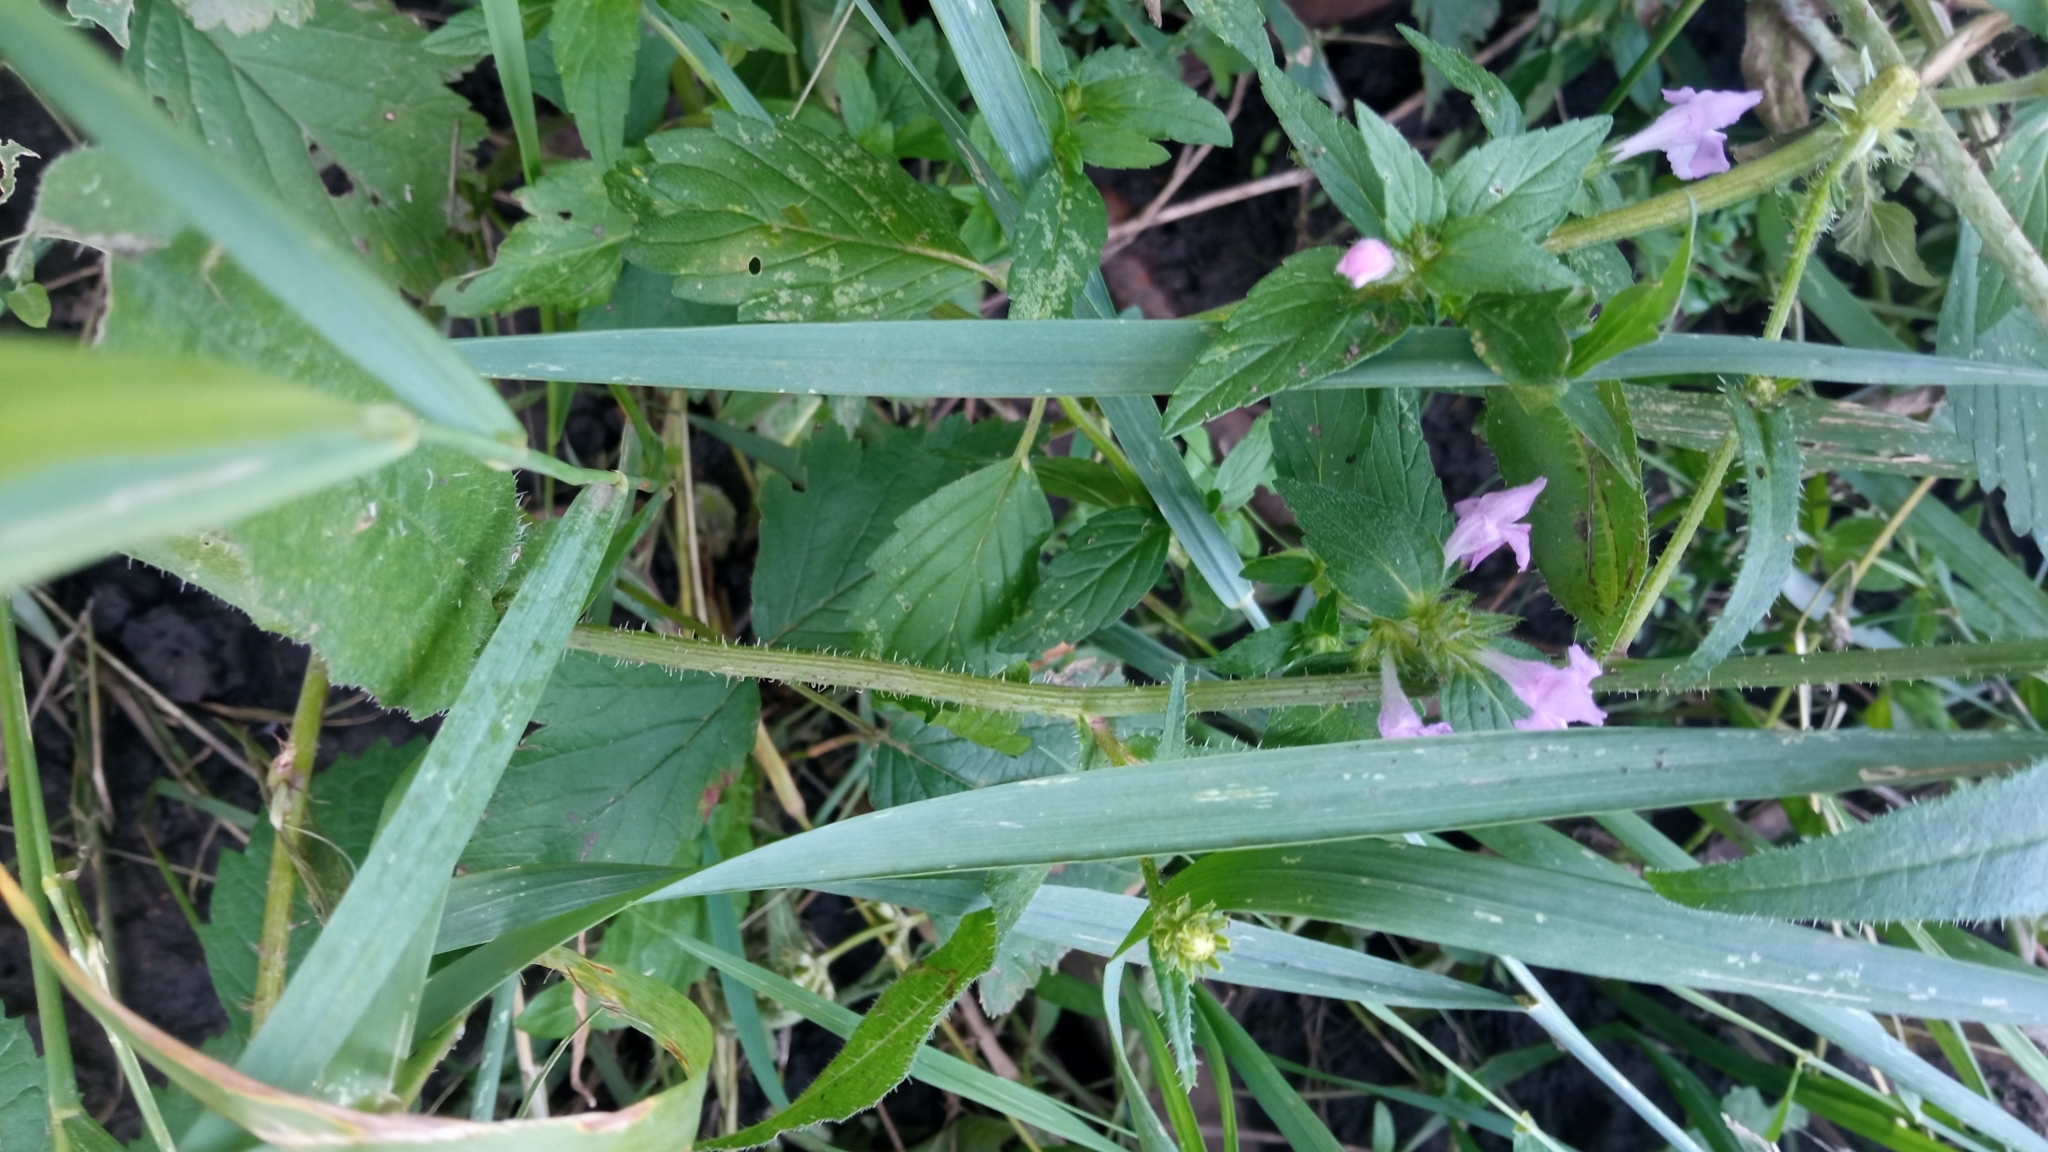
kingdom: Plantae
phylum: Tracheophyta
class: Magnoliopsida
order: Lamiales
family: Lamiaceae
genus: Galeopsis
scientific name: Galeopsis ladanum
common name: Broad-leaved hemp-nettle
